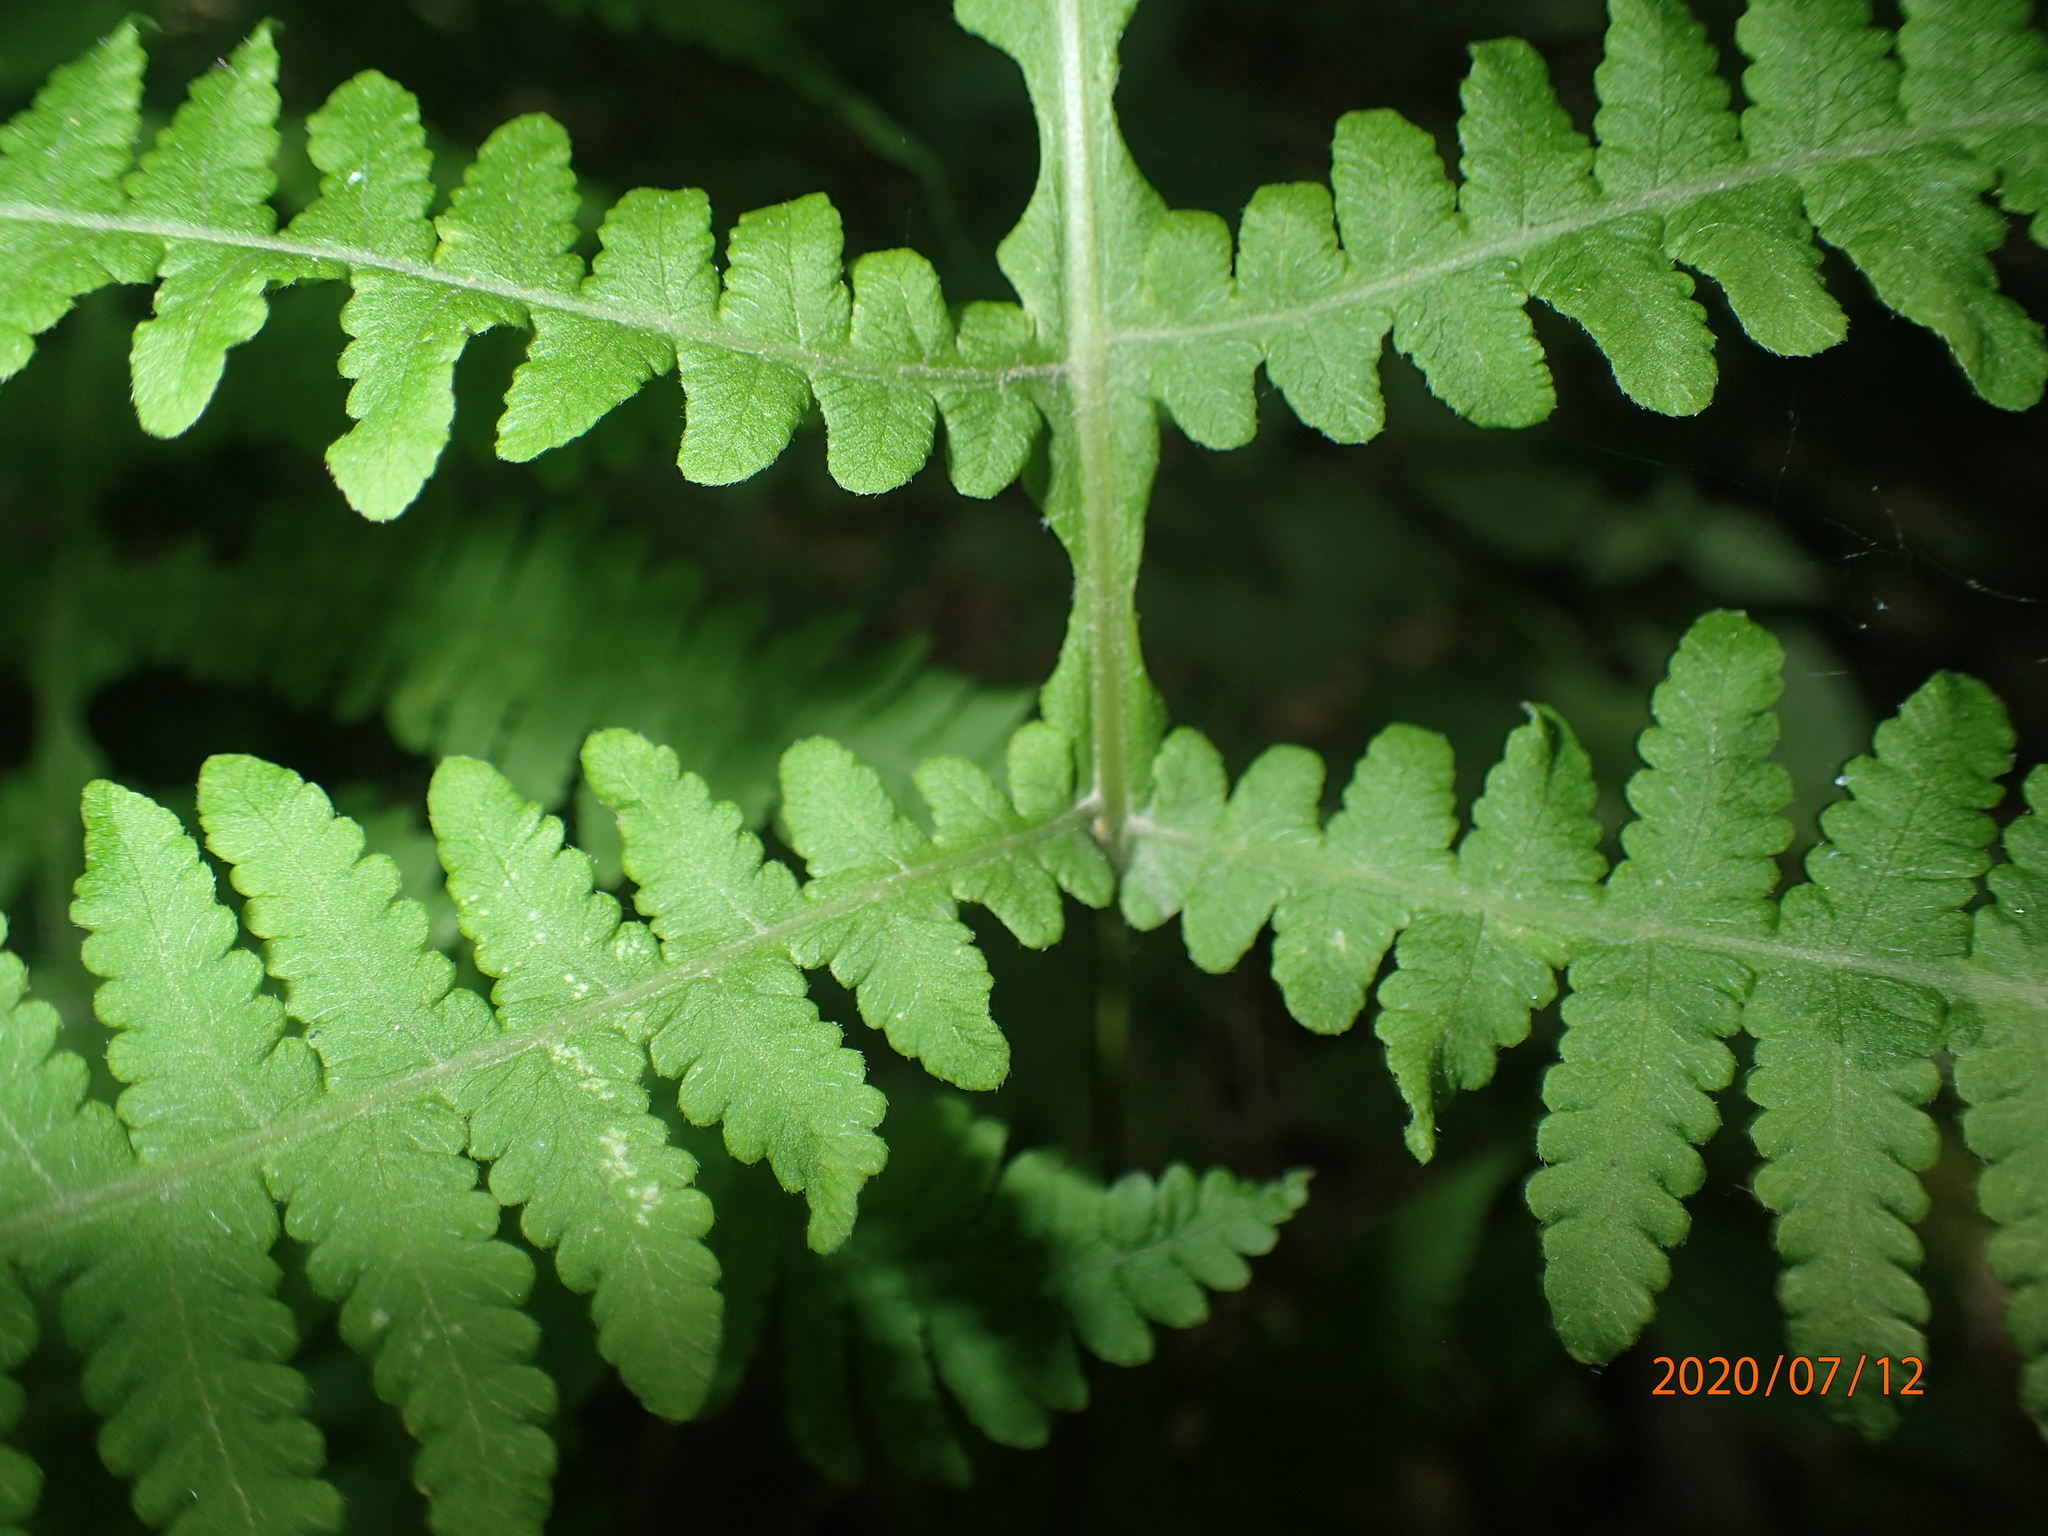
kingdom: Plantae
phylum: Tracheophyta
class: Polypodiopsida
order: Polypodiales
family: Thelypteridaceae
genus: Phegopteris
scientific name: Phegopteris hexagonoptera
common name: Broad beech fern
